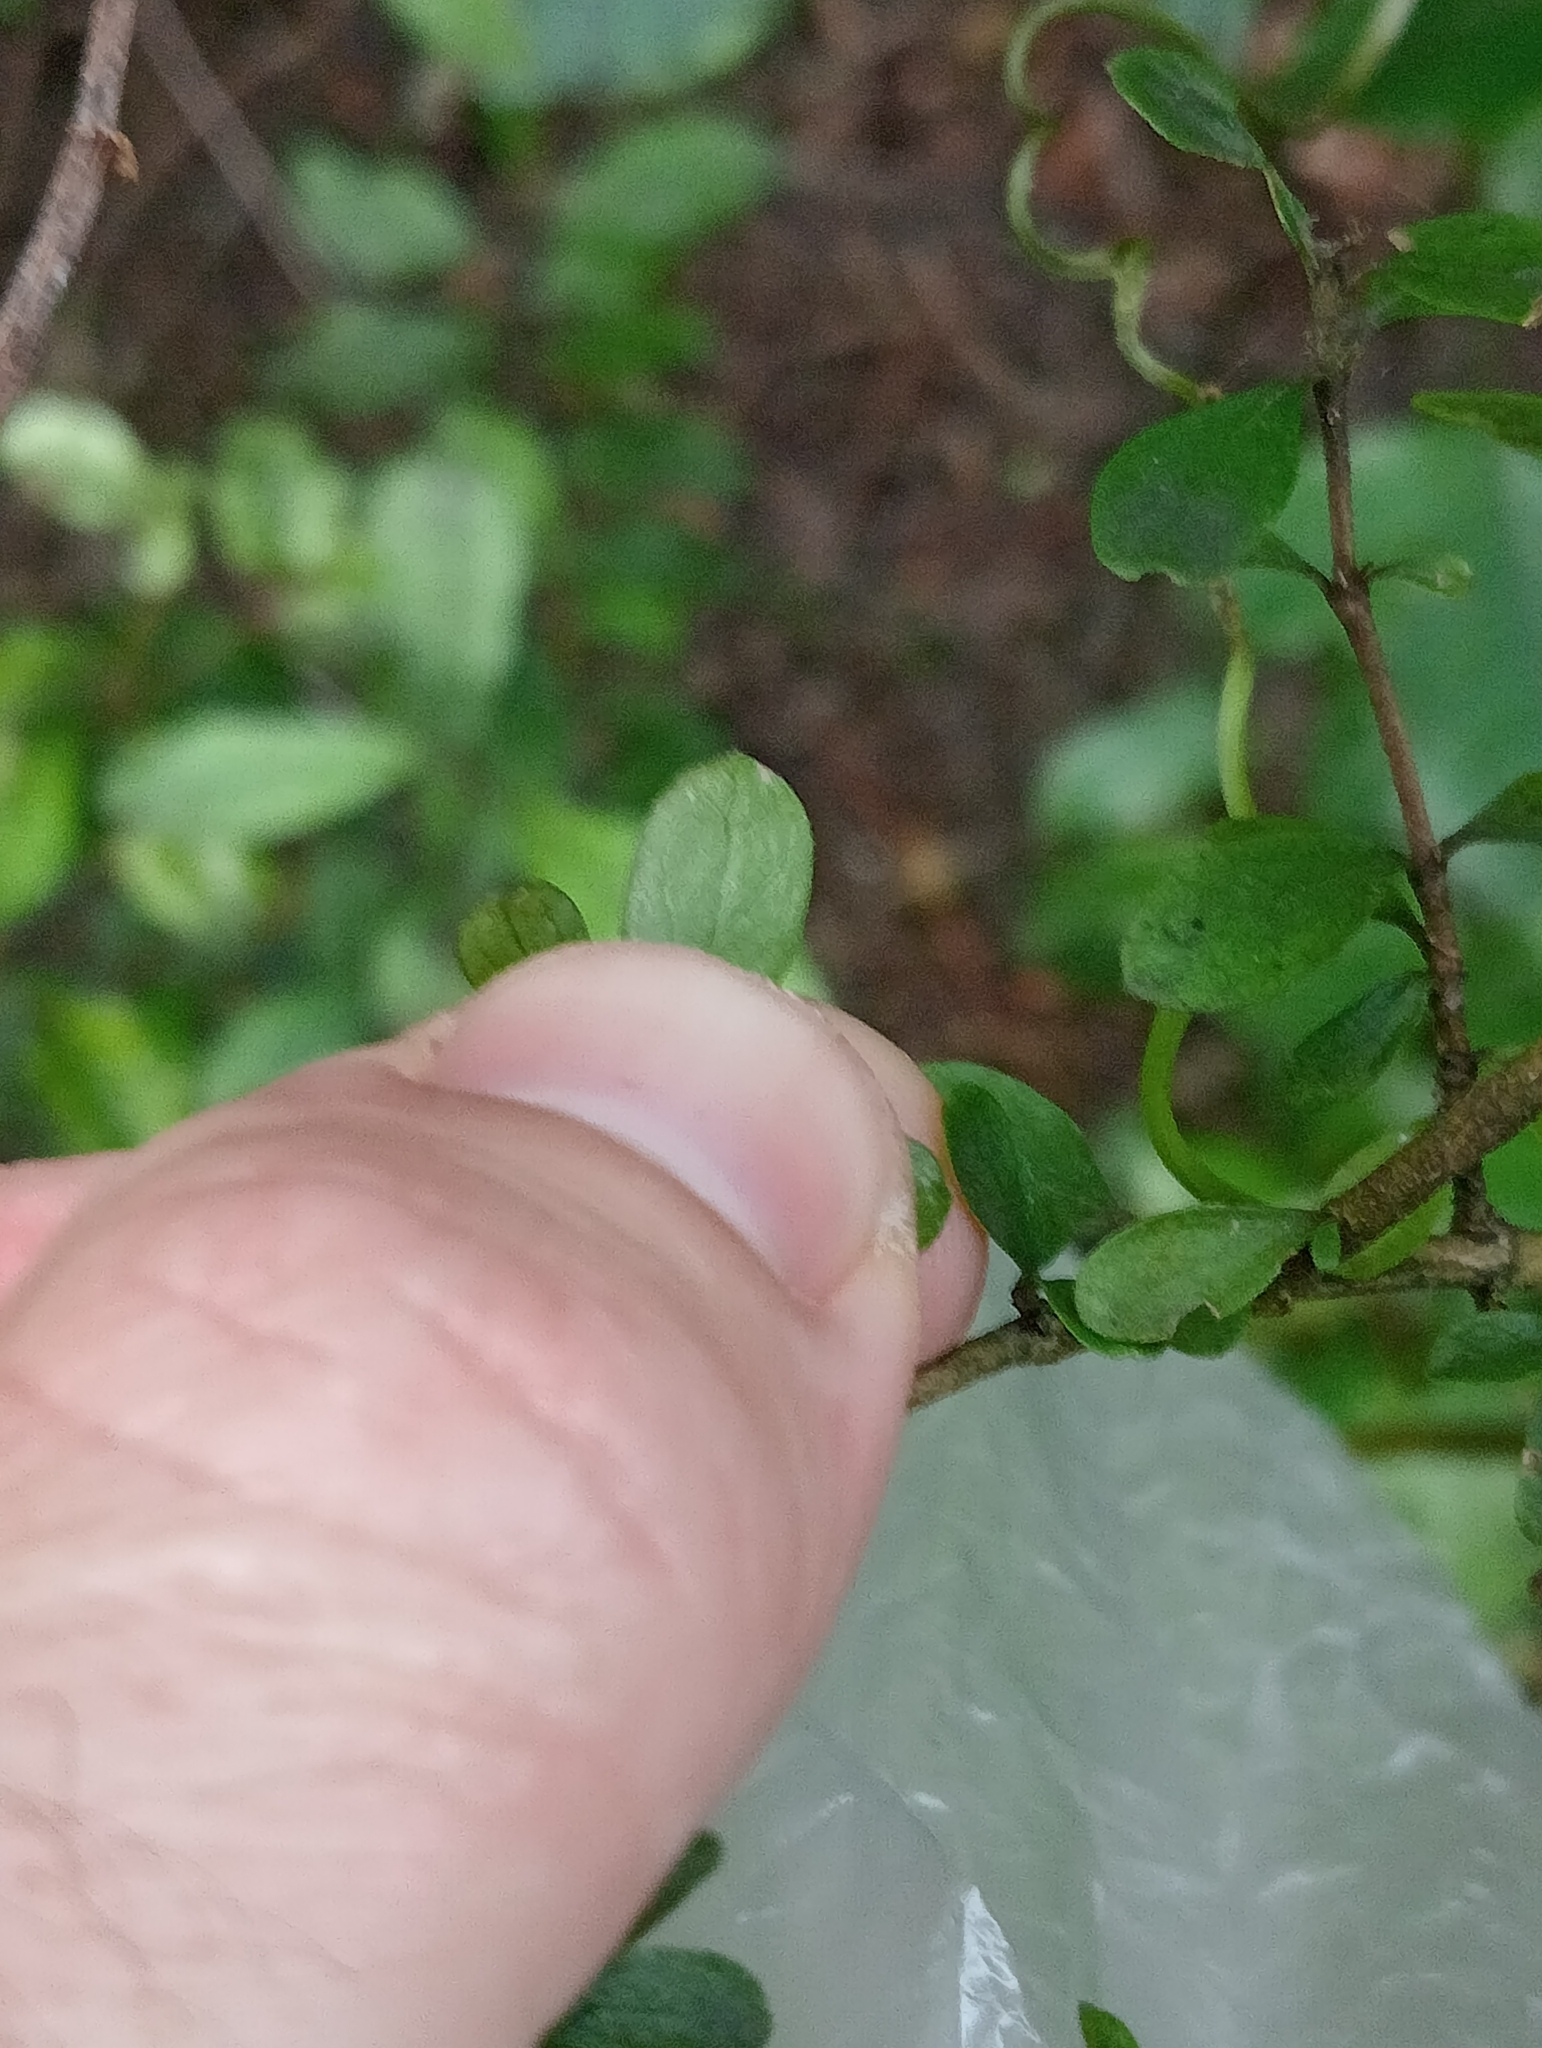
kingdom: Plantae
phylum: Tracheophyta
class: Magnoliopsida
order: Gentianales
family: Rubiaceae
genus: Coprosma
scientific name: Coprosma rigida
